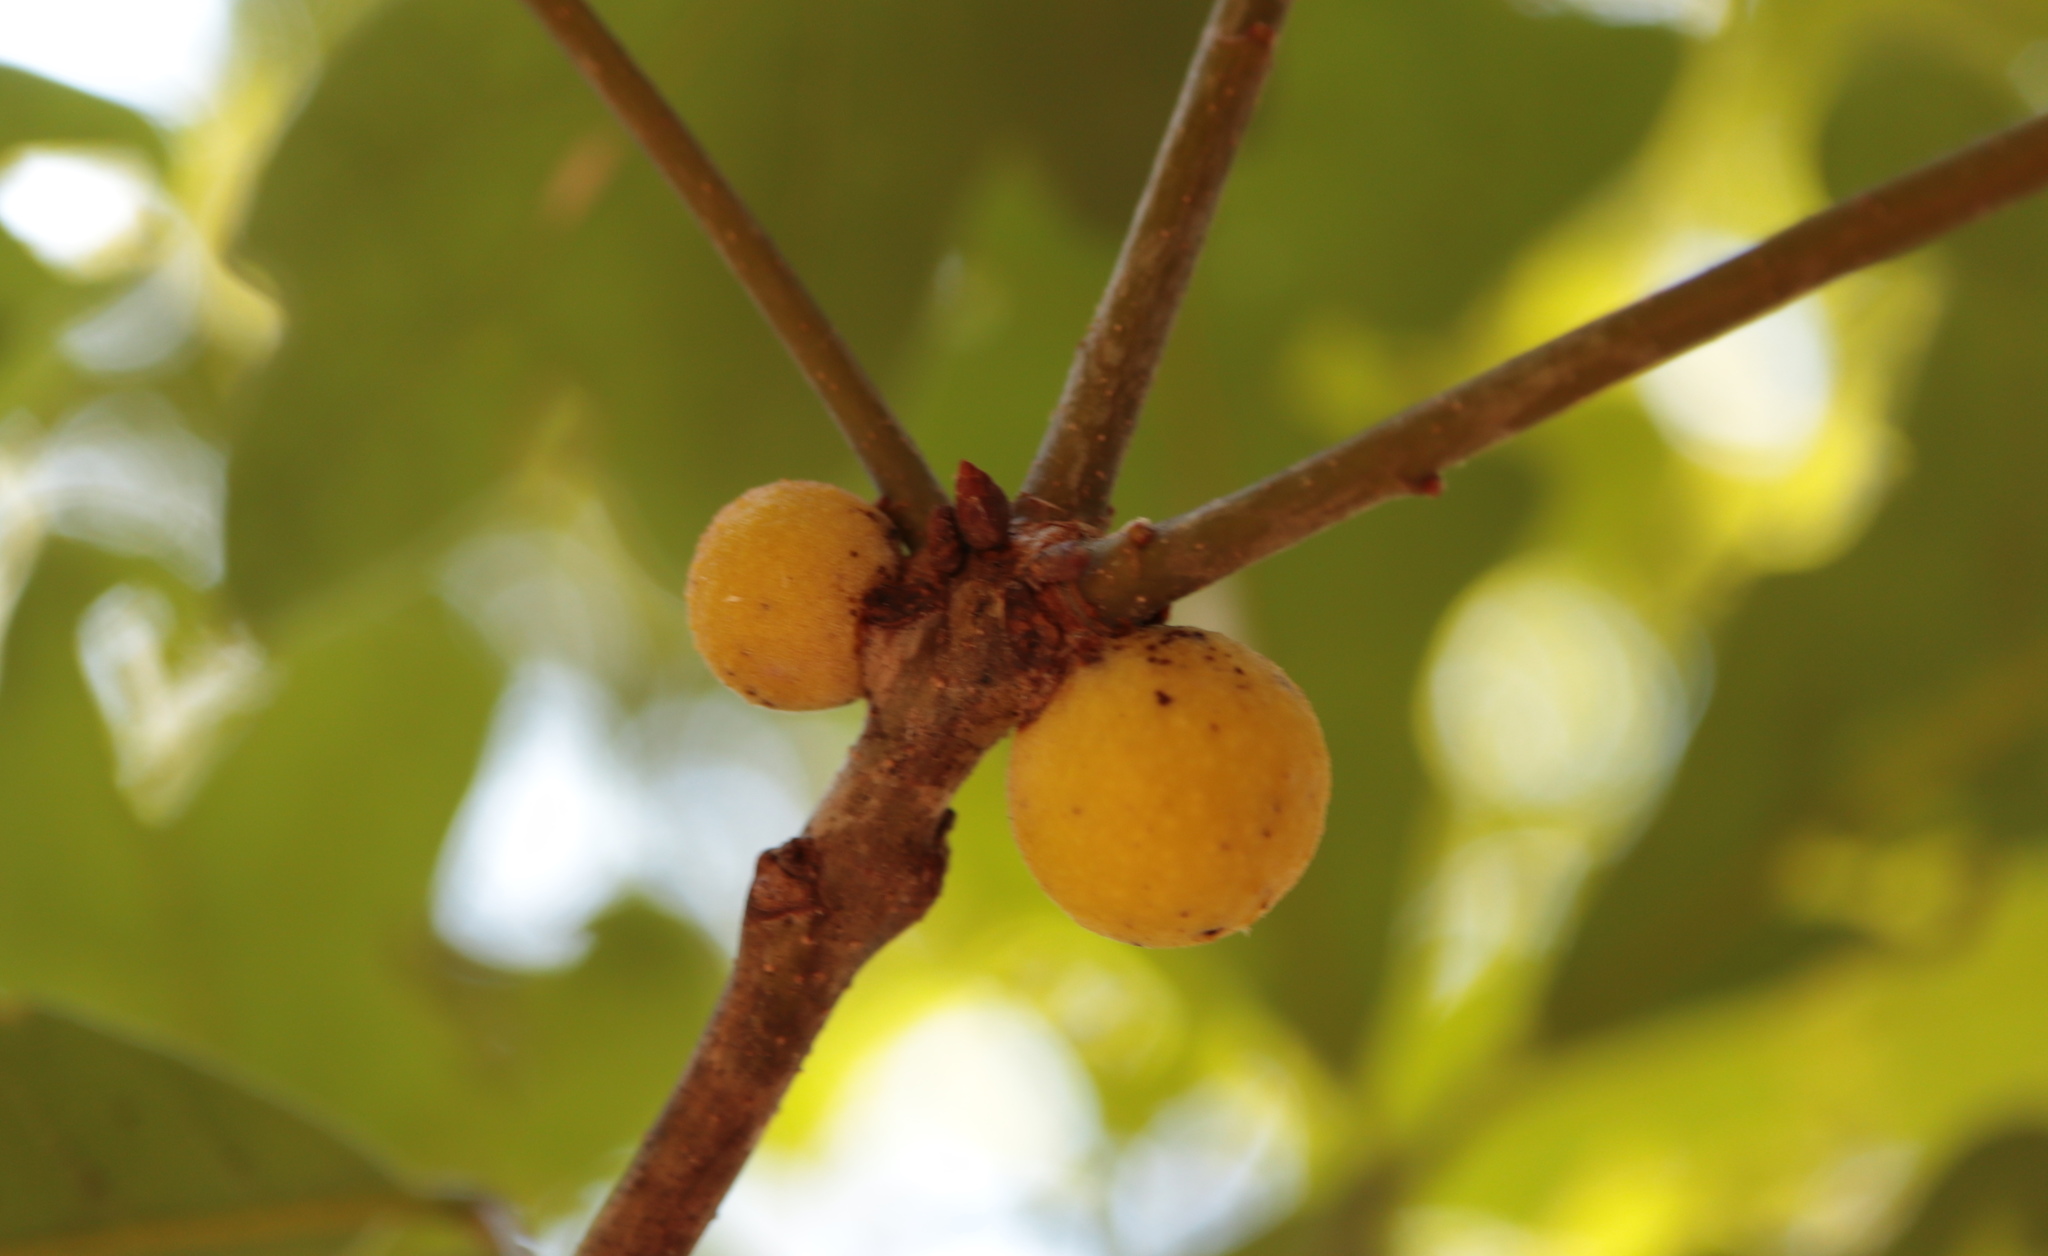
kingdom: Animalia
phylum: Arthropoda
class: Insecta
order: Hymenoptera
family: Cynipidae
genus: Disholcaspis
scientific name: Disholcaspis quercusglobulus
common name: Round bullet gall wasp
